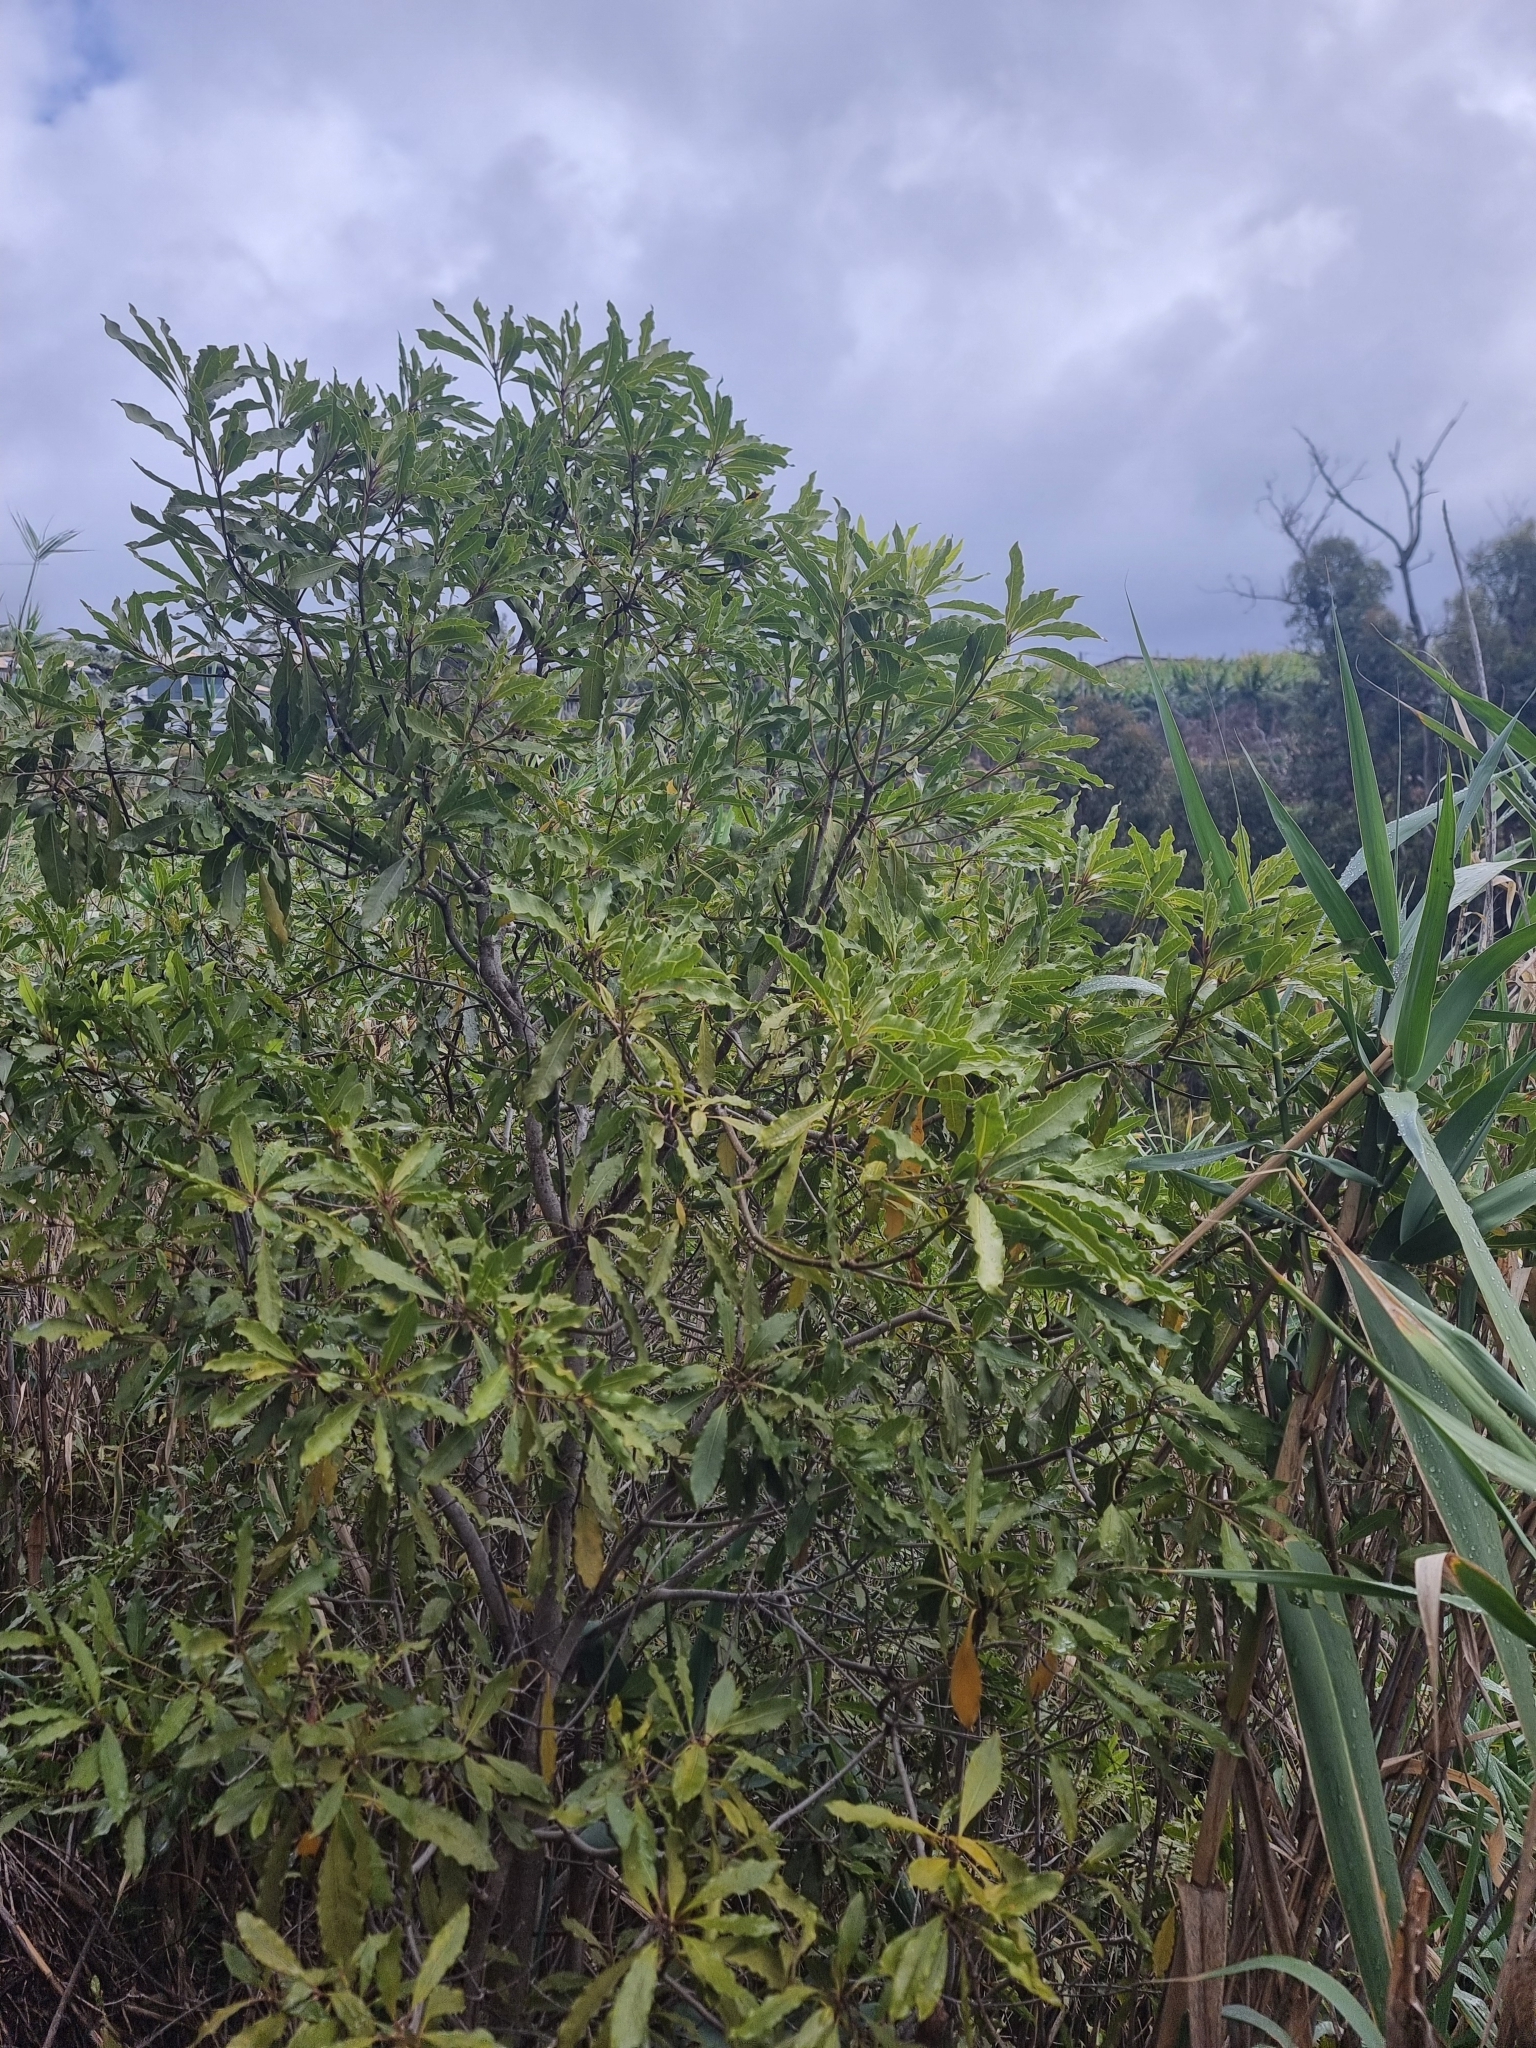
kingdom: Plantae
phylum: Tracheophyta
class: Magnoliopsida
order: Apiales
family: Pittosporaceae
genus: Pittosporum
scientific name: Pittosporum undulatum
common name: Australian cheesewood
